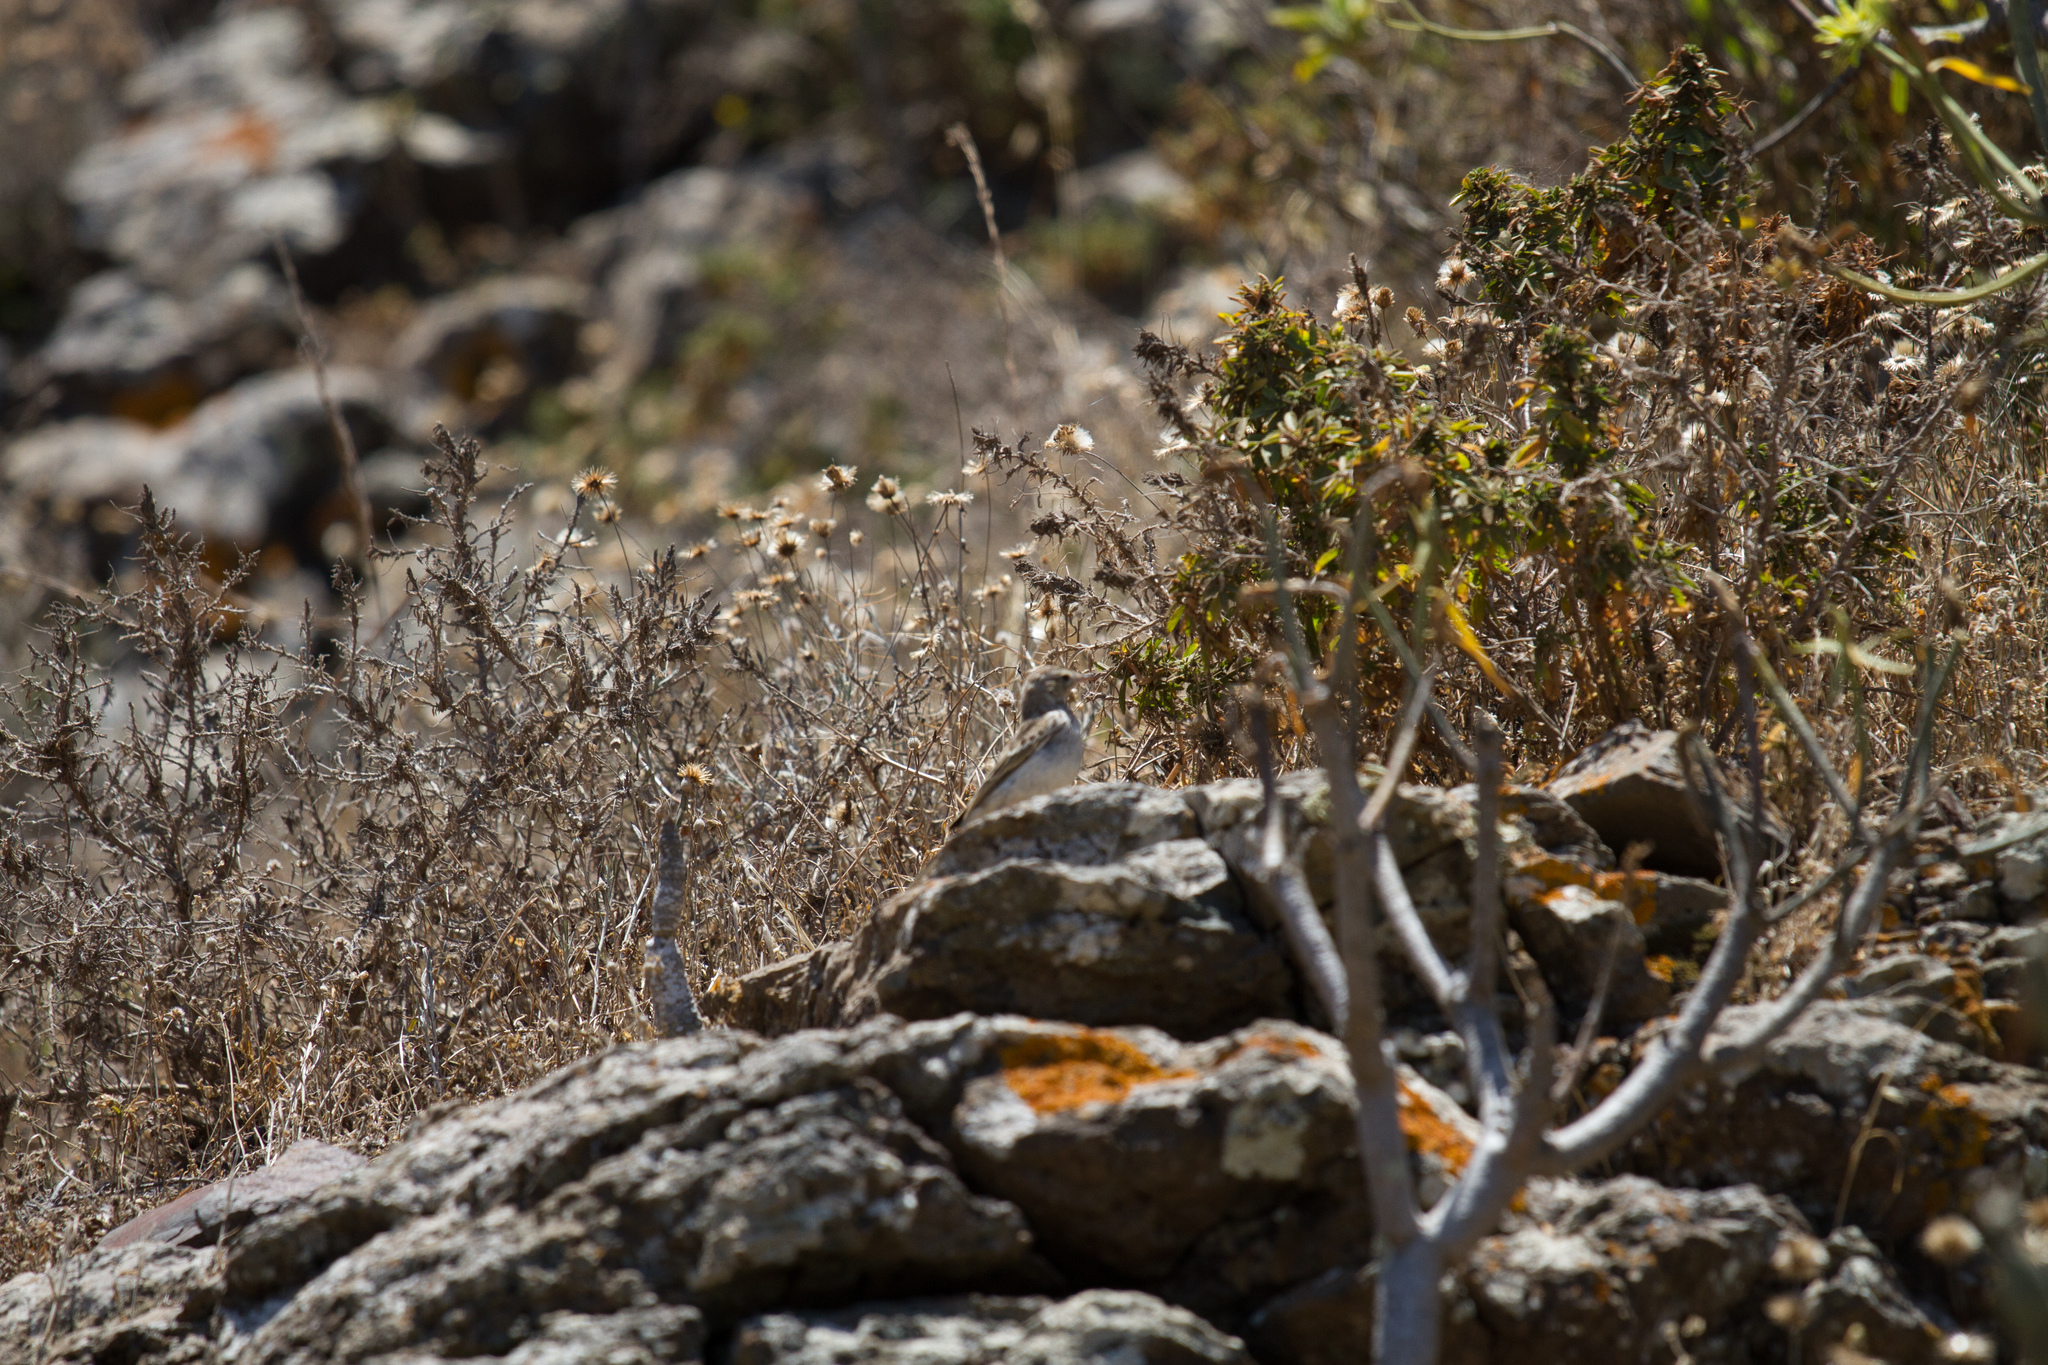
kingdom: Animalia
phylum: Chordata
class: Aves
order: Passeriformes
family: Motacillidae
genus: Anthus
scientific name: Anthus berthelotii
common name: Berthelot's pipit
